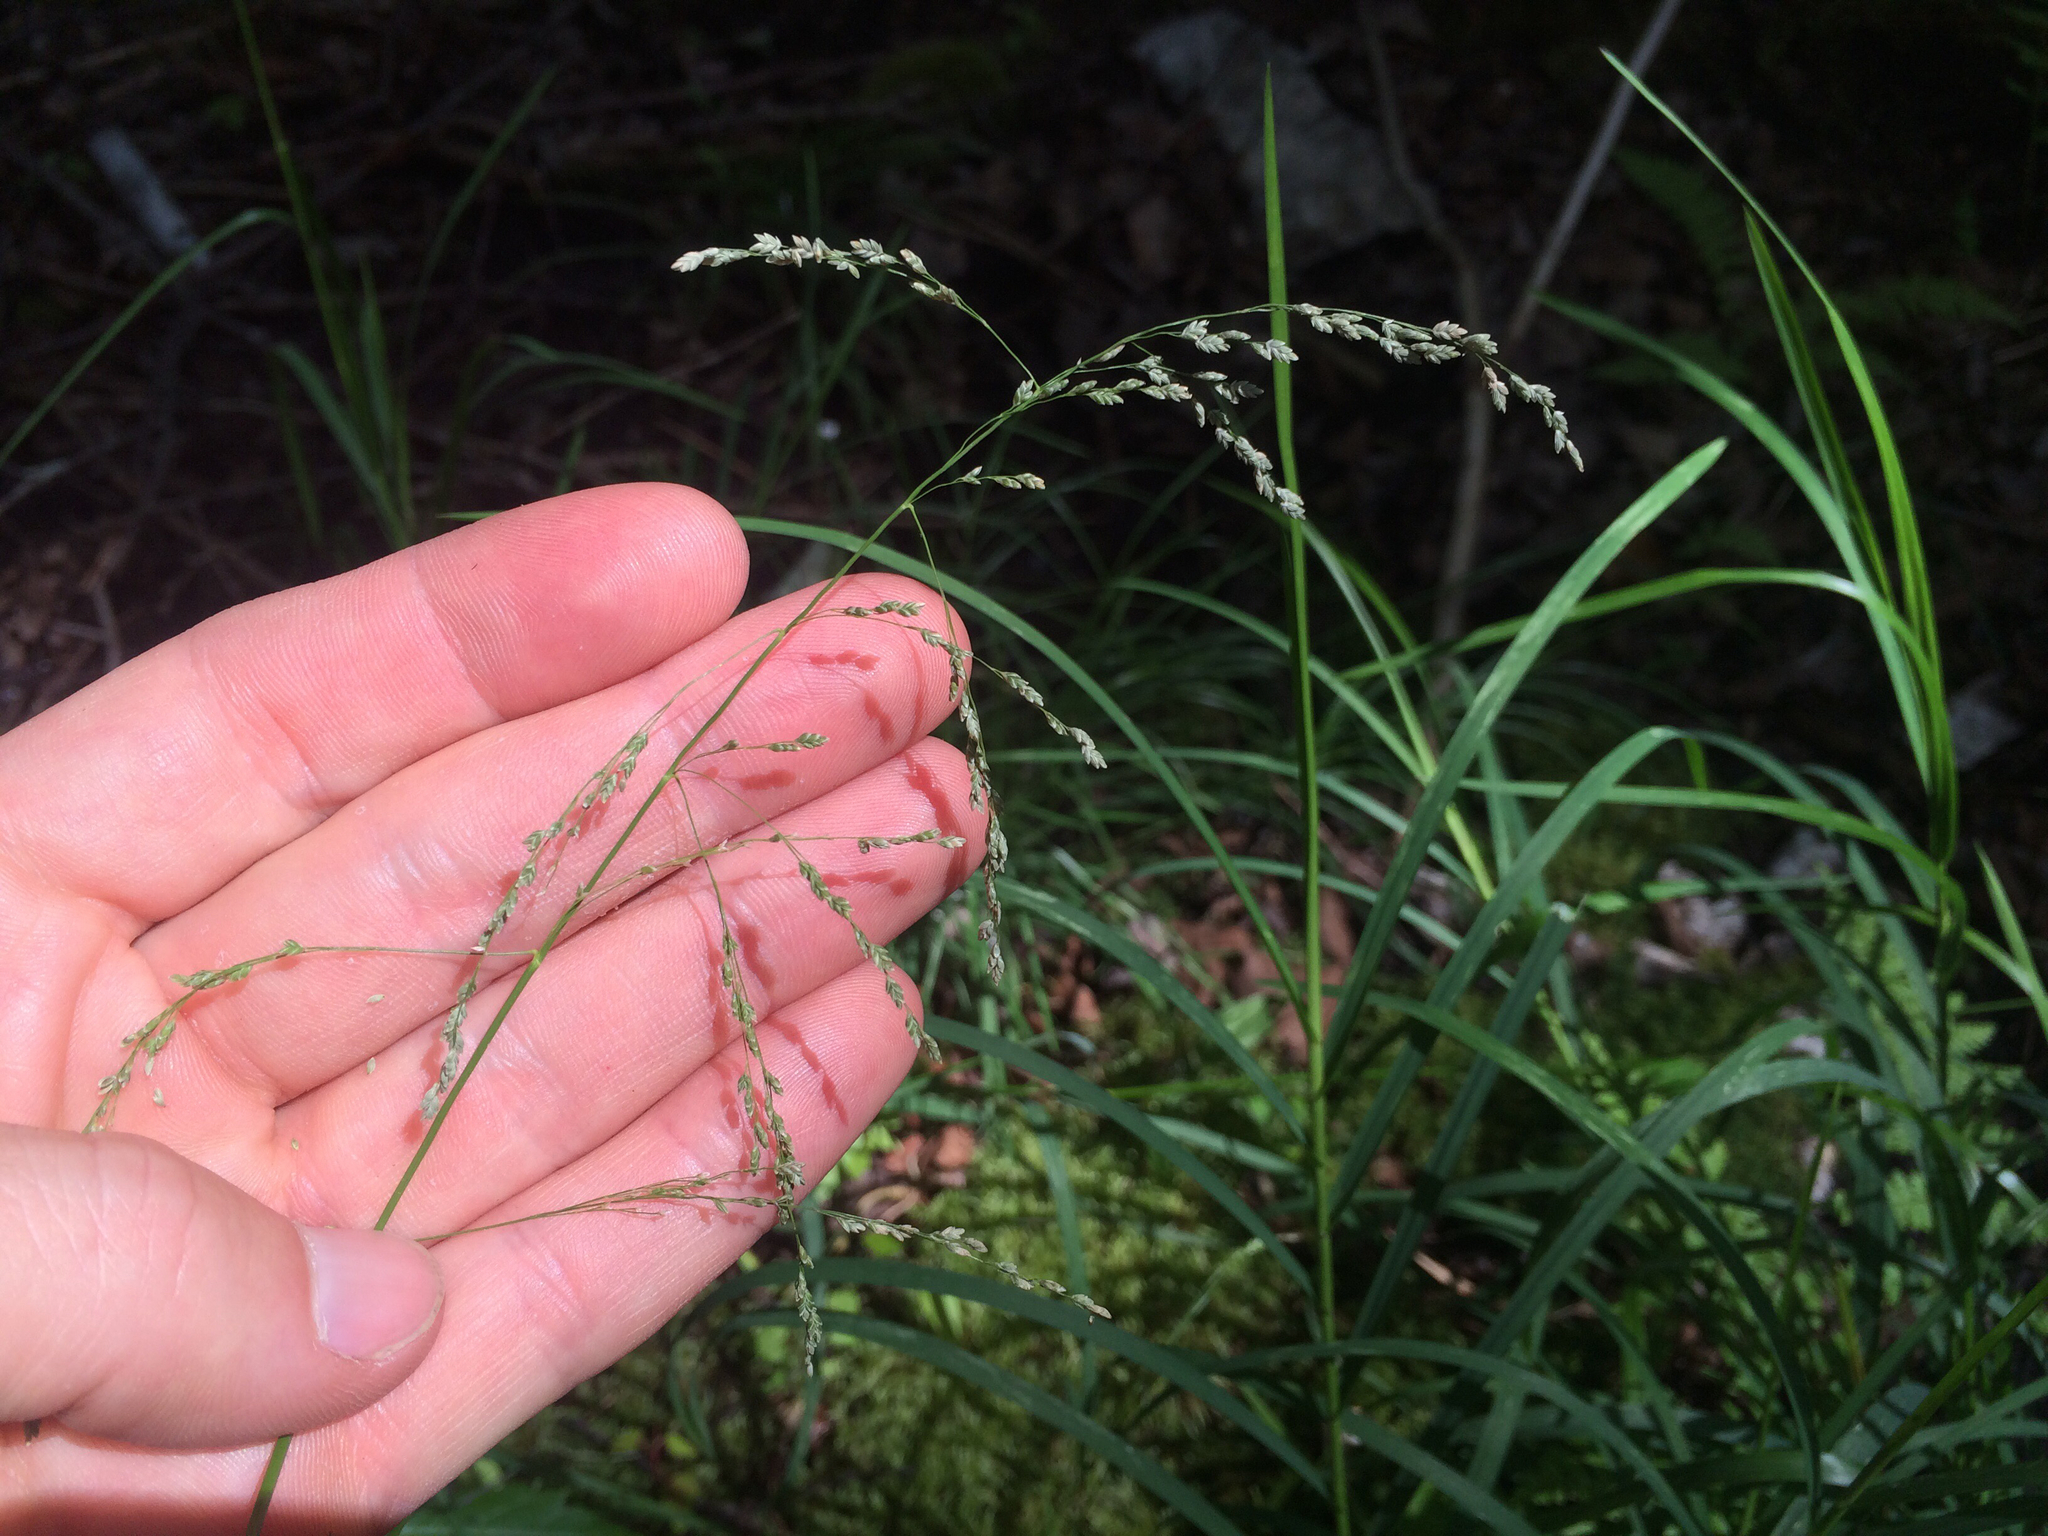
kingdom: Plantae
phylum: Tracheophyta
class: Liliopsida
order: Poales
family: Poaceae
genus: Glyceria
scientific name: Glyceria striata
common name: Fowl manna grass
